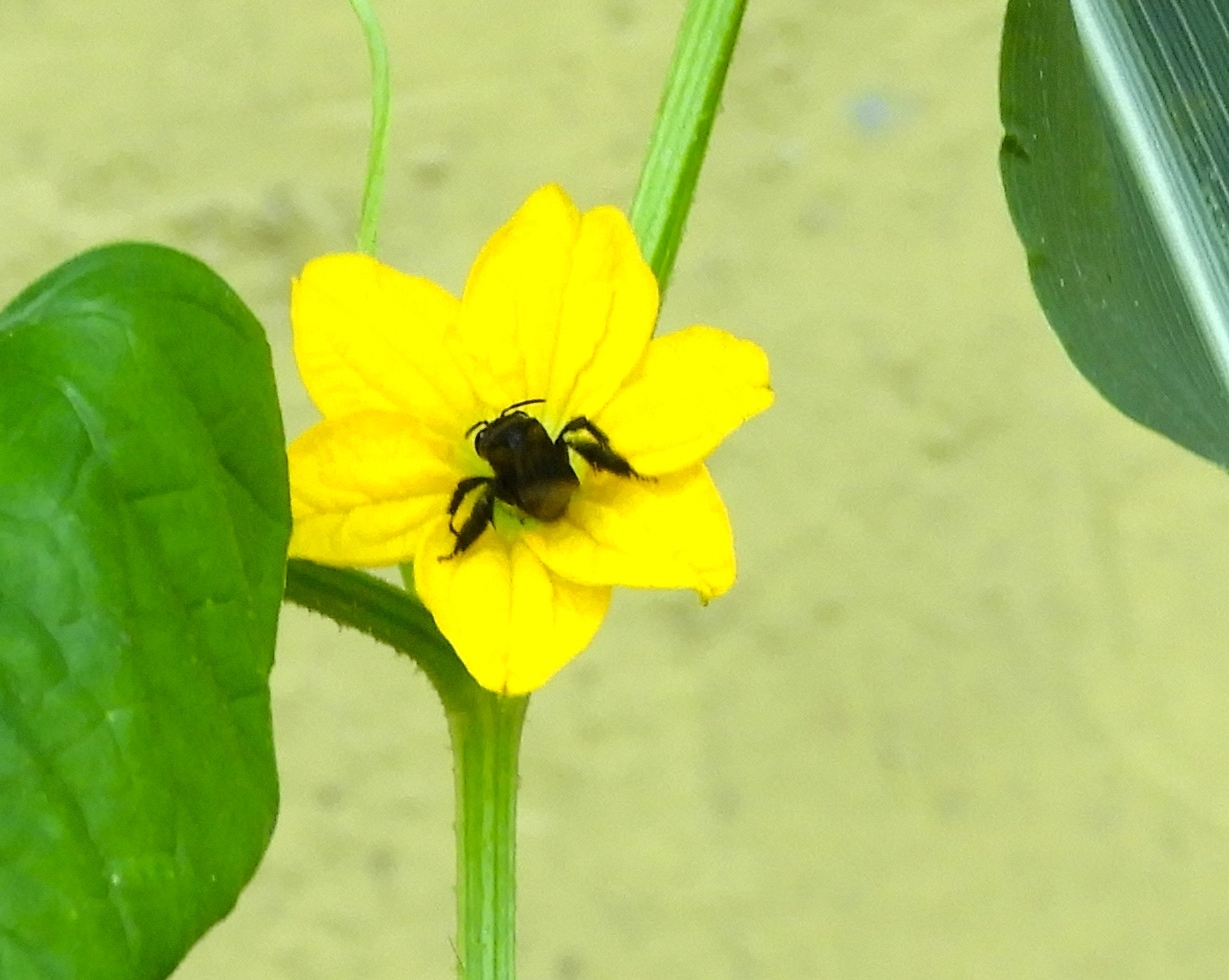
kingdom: Animalia
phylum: Arthropoda
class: Insecta
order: Hymenoptera
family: Apidae
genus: Paratetrapedia
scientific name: Paratetrapedia moesta
